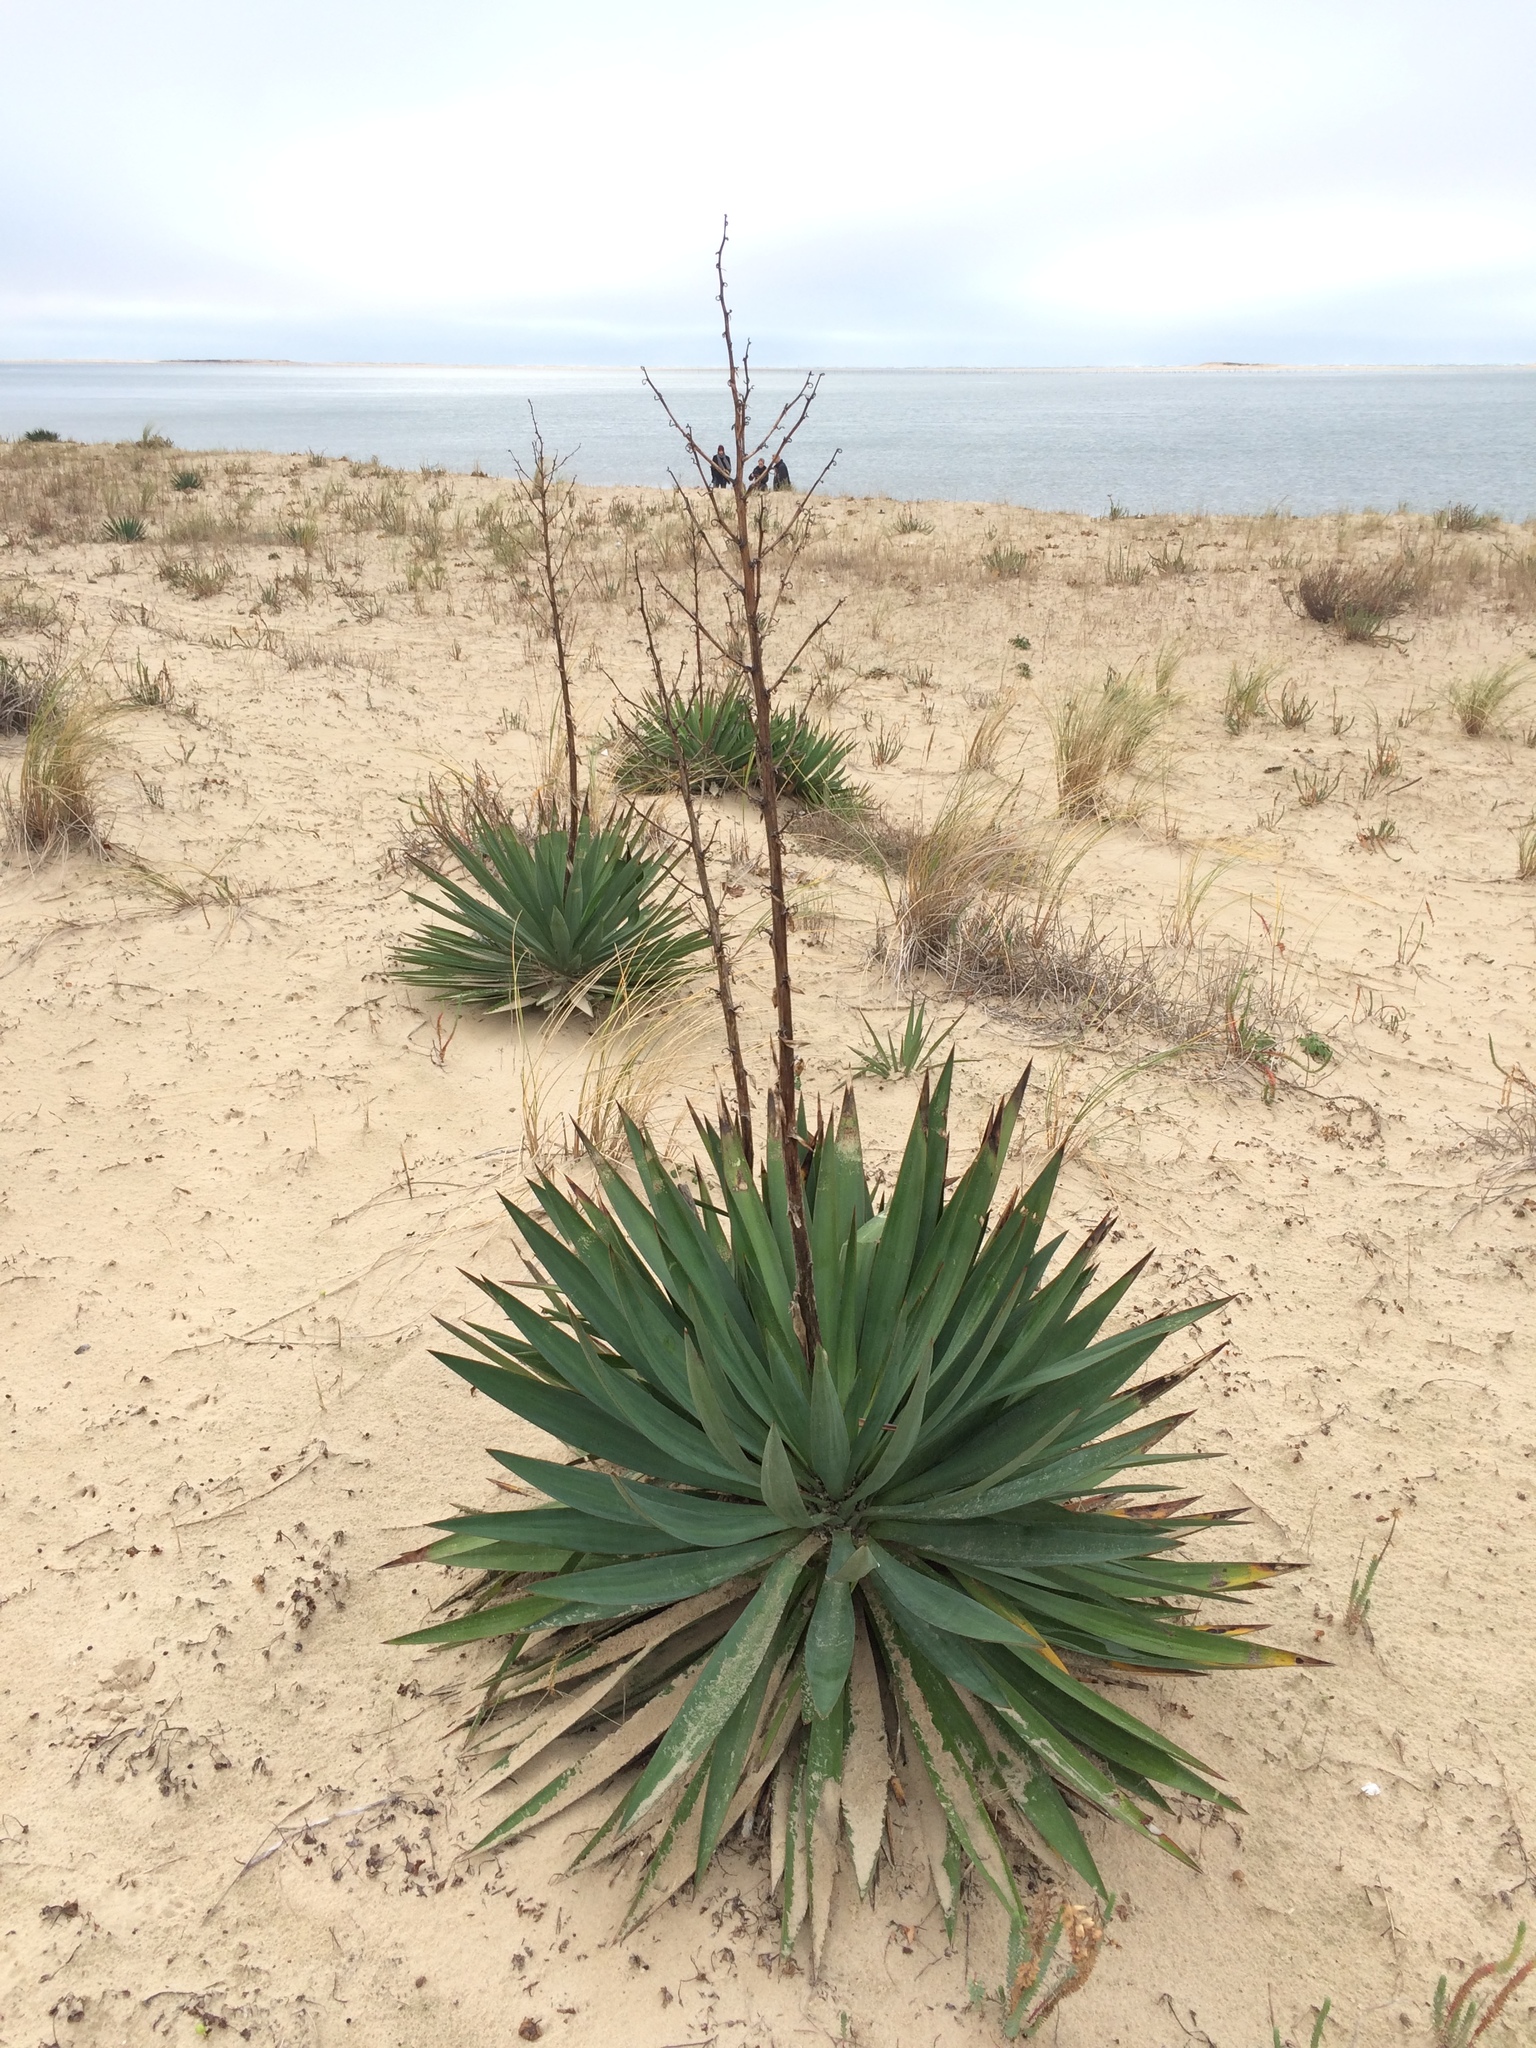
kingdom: Plantae
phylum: Tracheophyta
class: Liliopsida
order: Asparagales
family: Asparagaceae
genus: Yucca
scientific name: Yucca gloriosa
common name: Spanish-dagger
